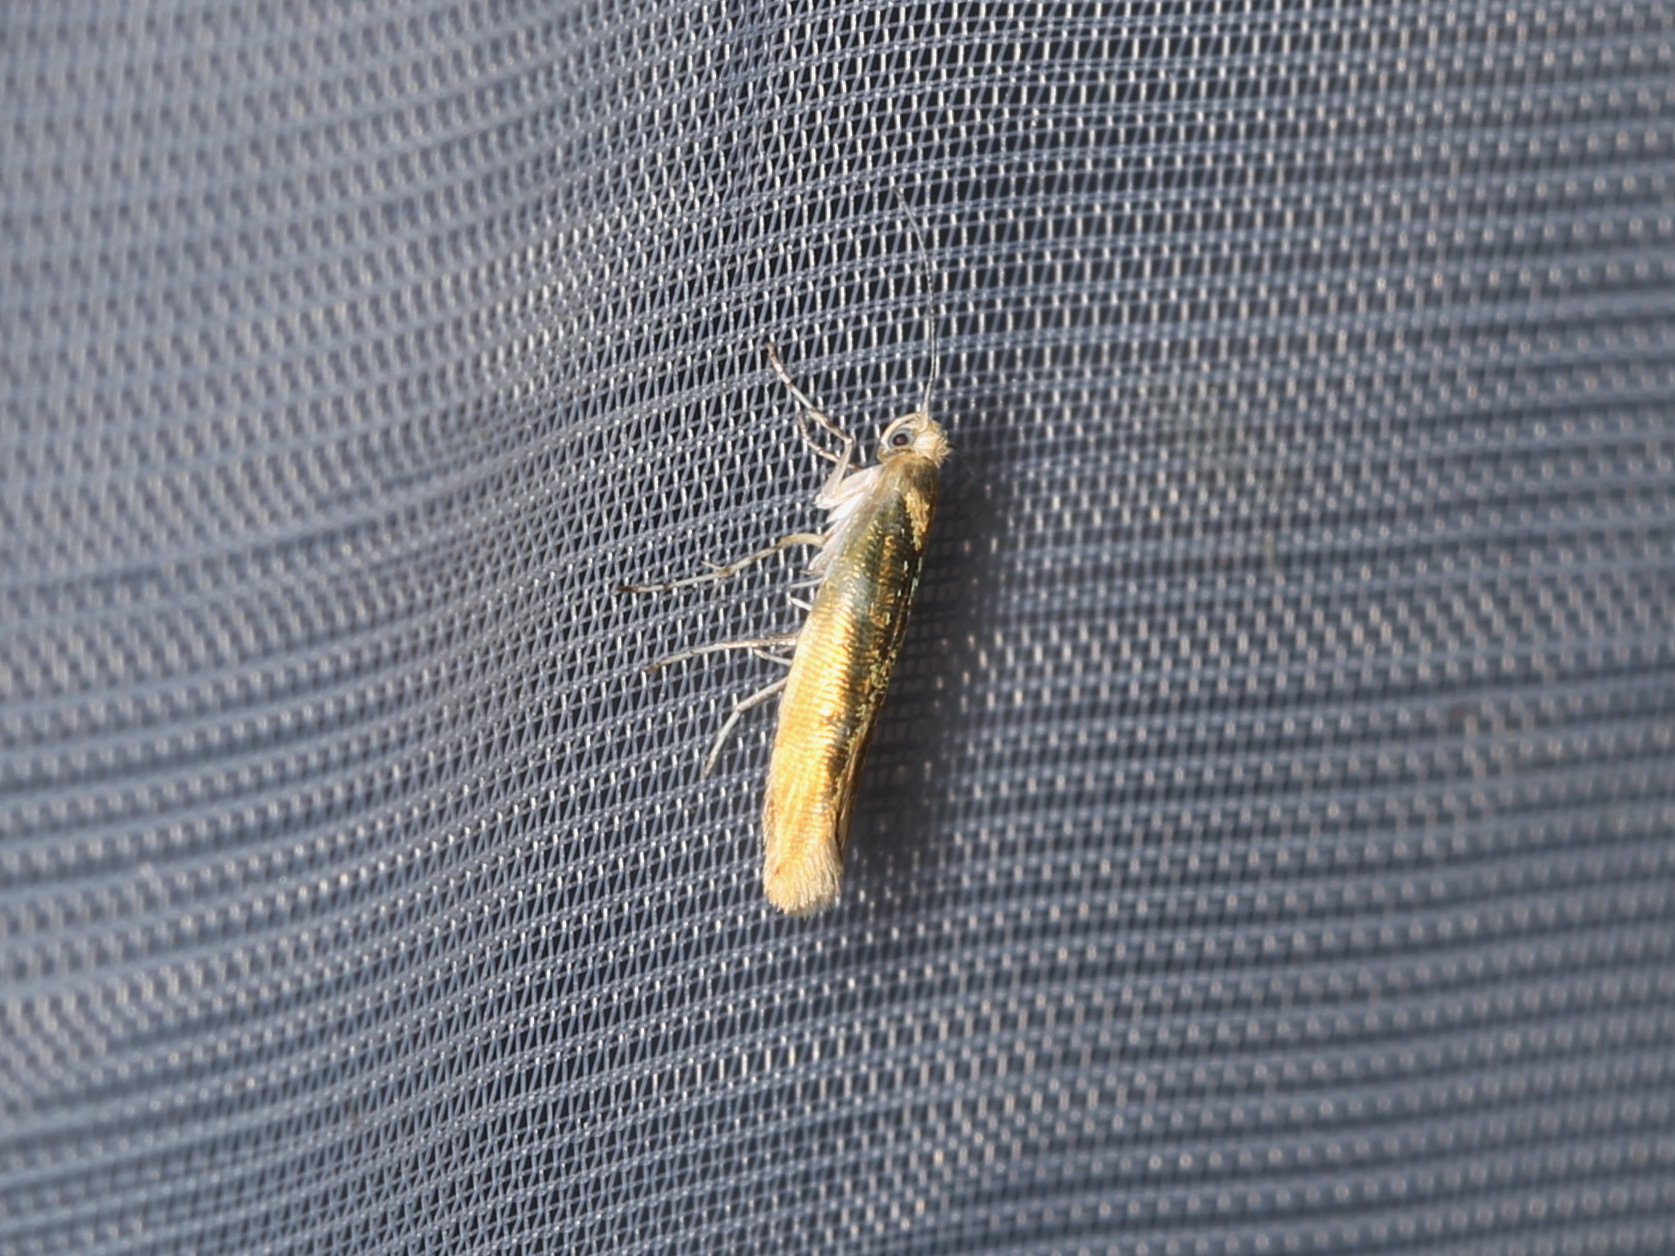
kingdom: Animalia
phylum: Arthropoda
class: Insecta
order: Lepidoptera
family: Argyresthiidae
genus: Argyresthia
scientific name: Argyresthia goedartella
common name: Golden argent
